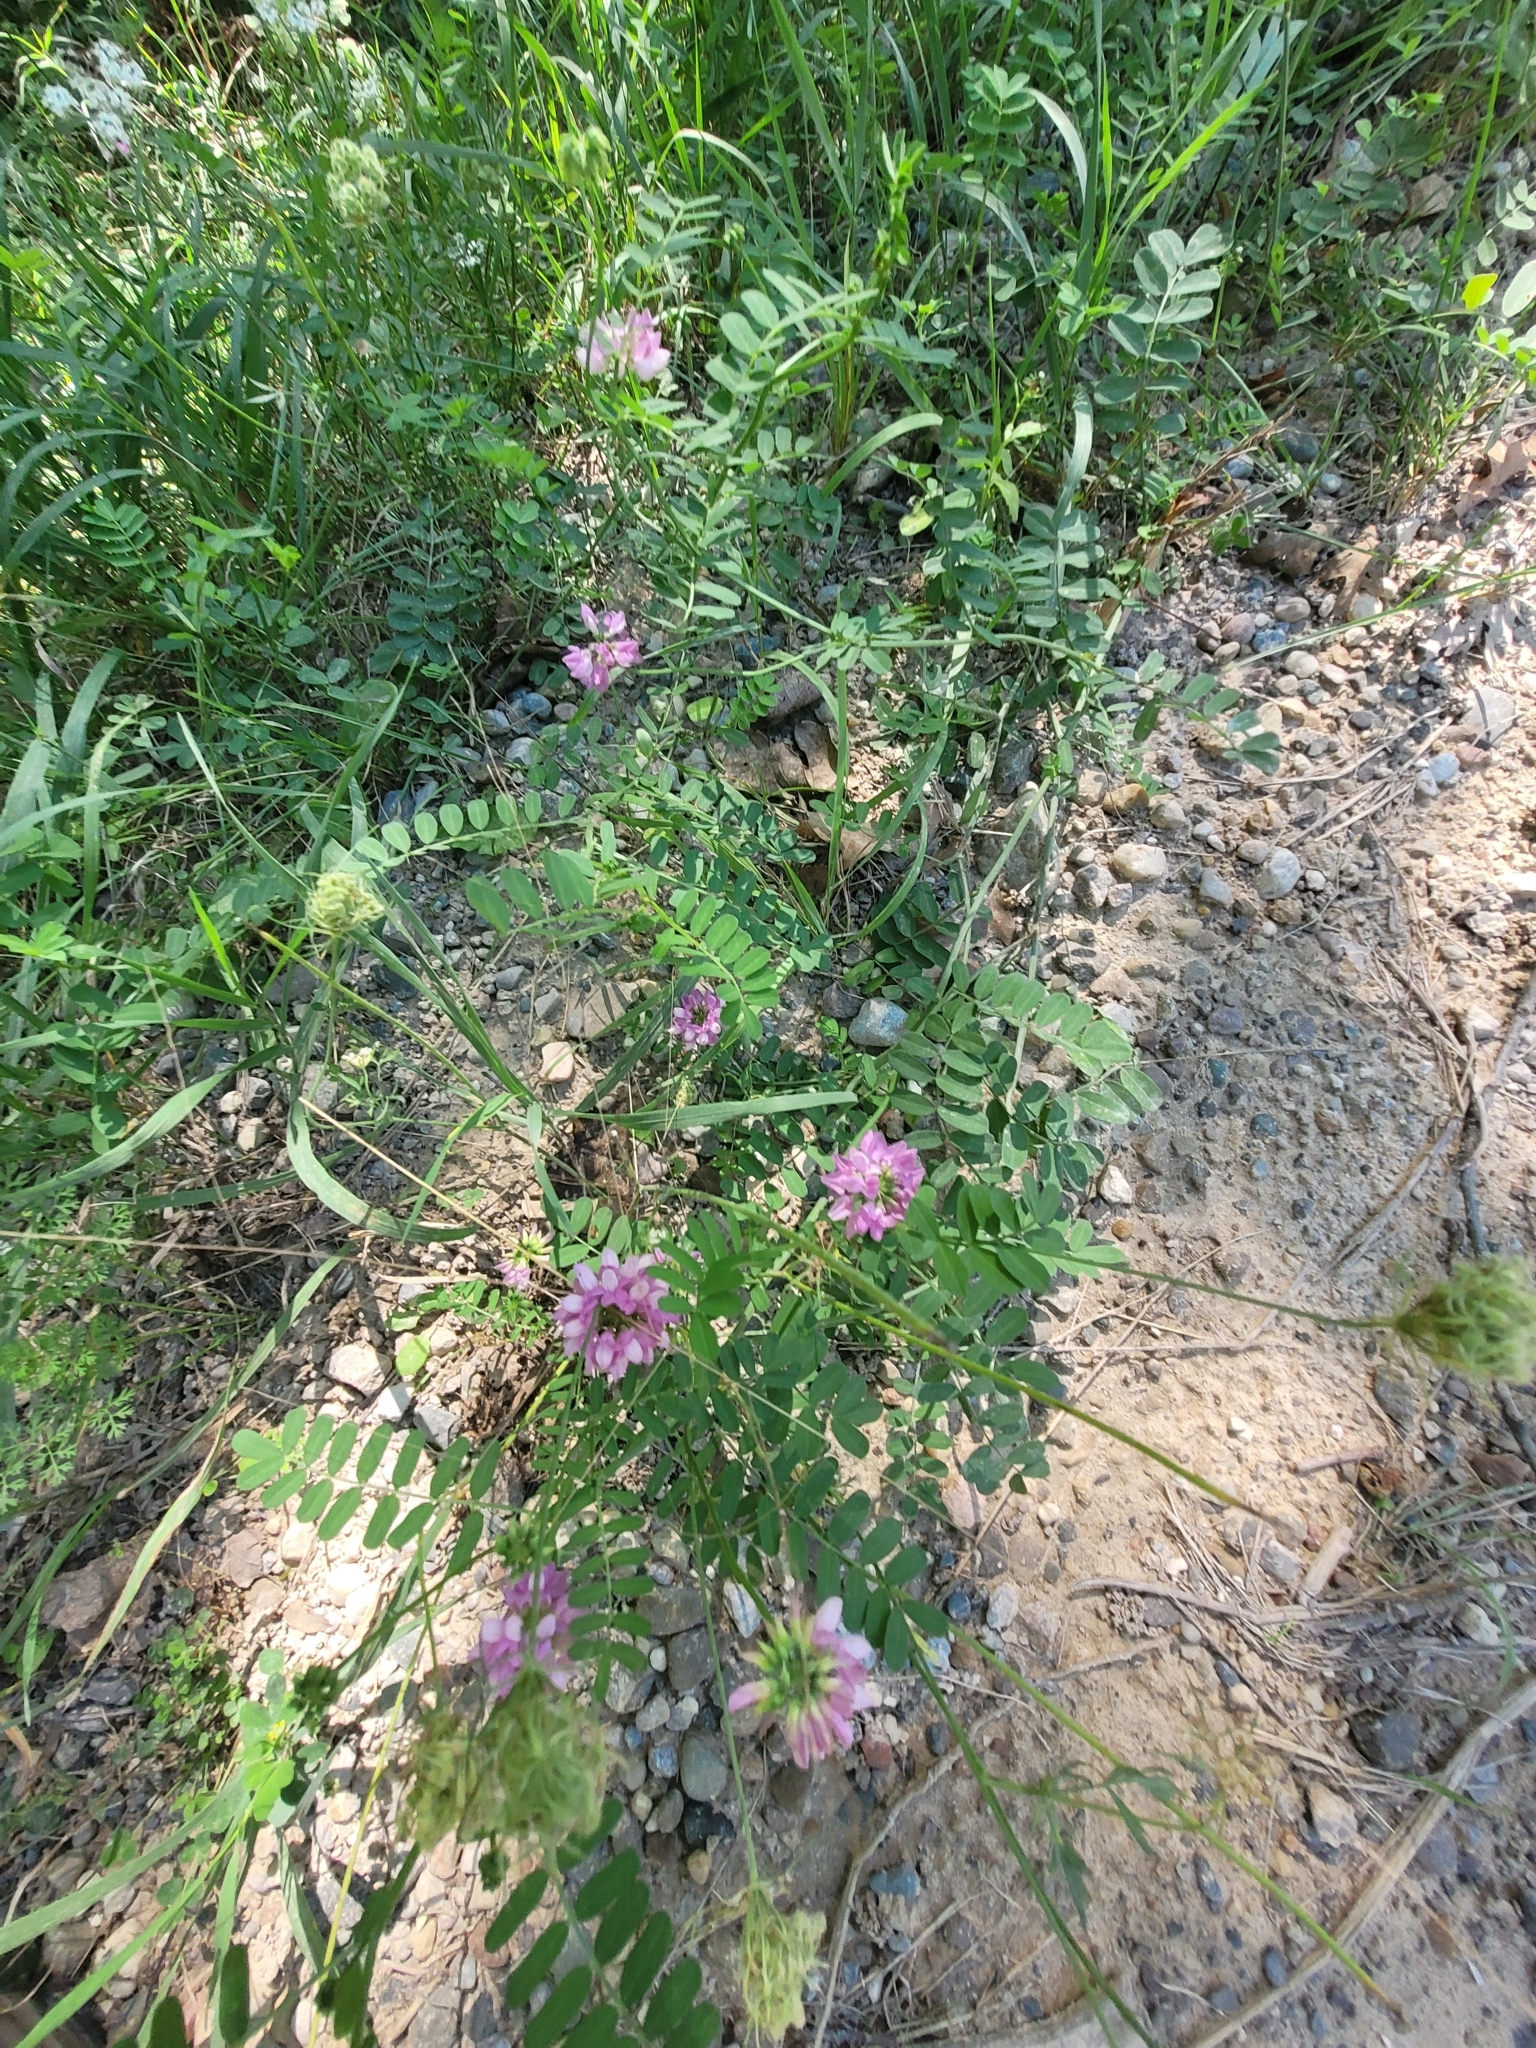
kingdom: Plantae
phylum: Tracheophyta
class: Magnoliopsida
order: Fabales
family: Fabaceae
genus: Coronilla
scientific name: Coronilla varia
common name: Crownvetch
